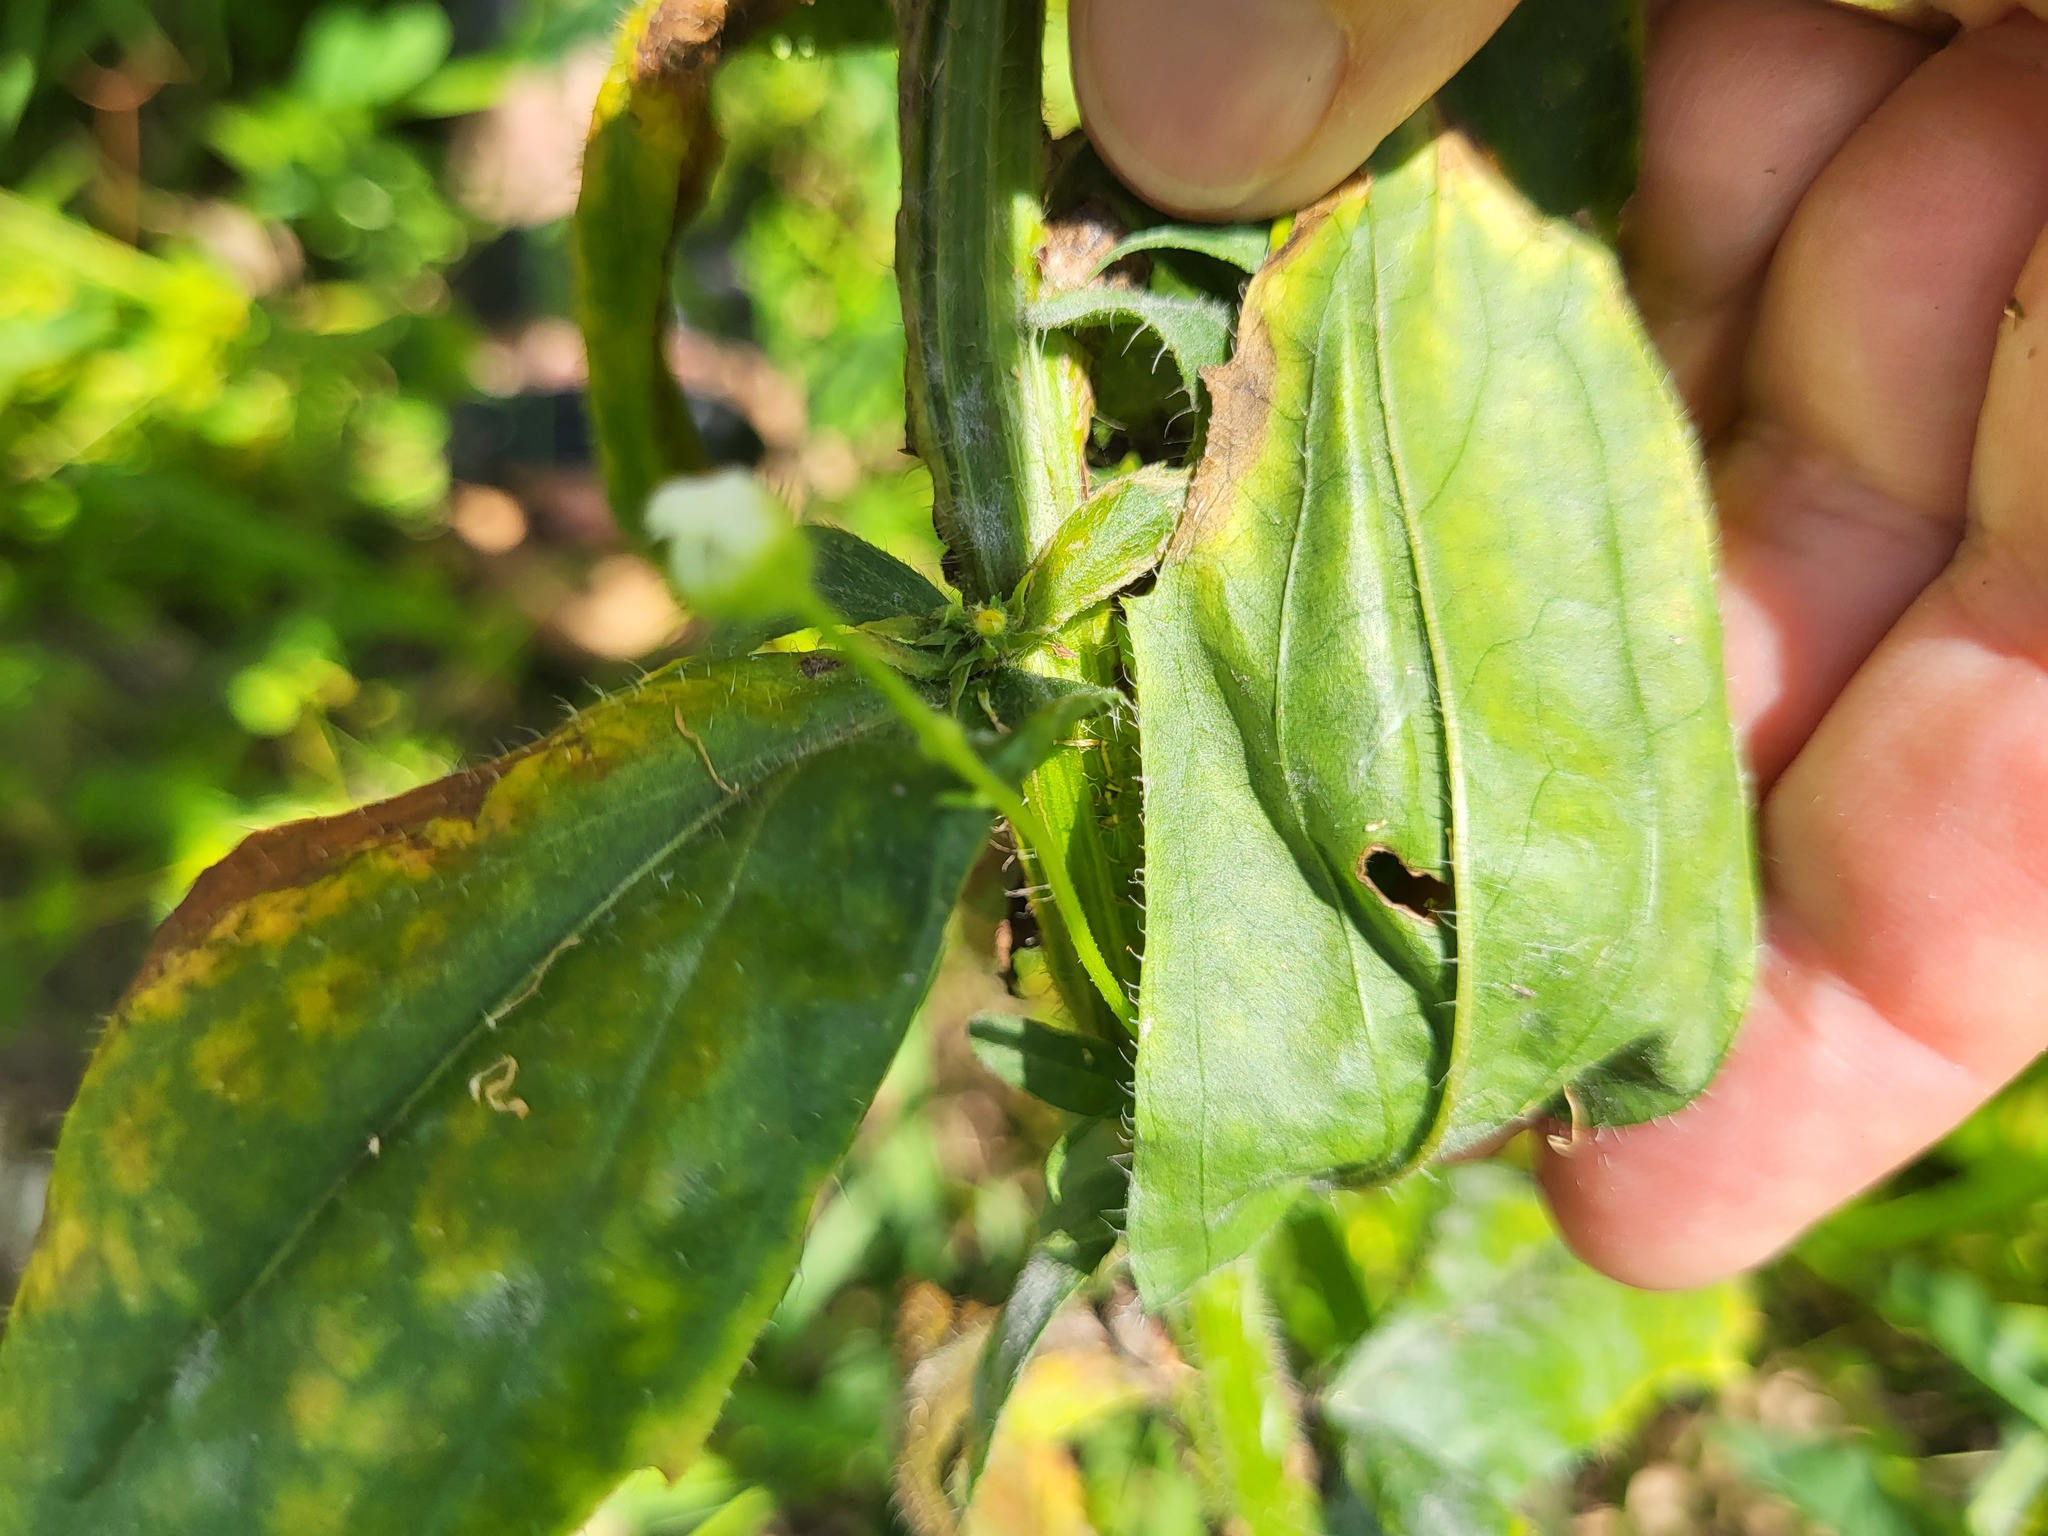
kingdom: Plantae
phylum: Tracheophyta
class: Magnoliopsida
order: Asterales
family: Asteraceae
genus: Erigeron
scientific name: Erigeron annuus
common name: Tall fleabane
